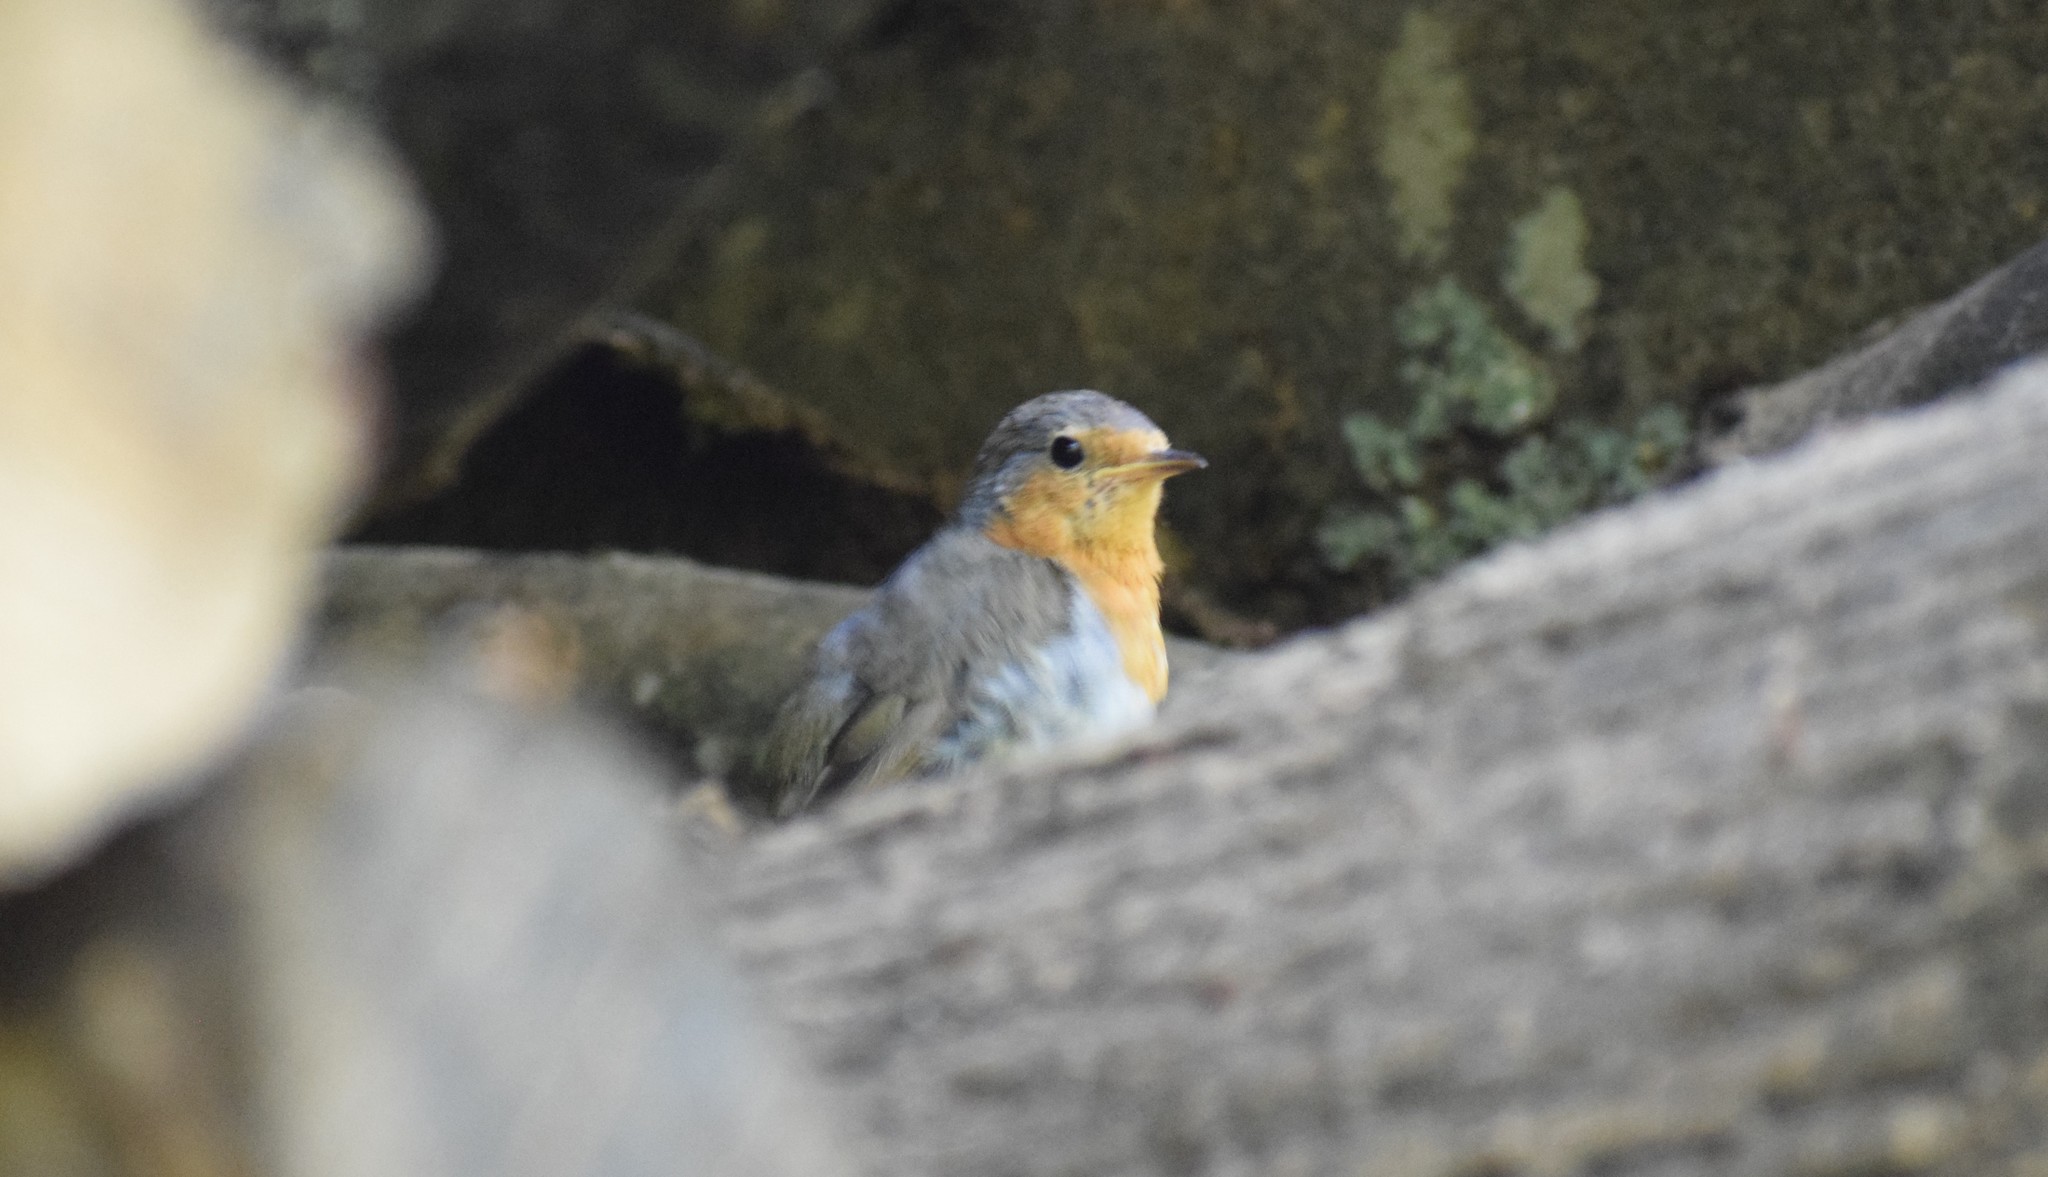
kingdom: Animalia
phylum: Chordata
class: Aves
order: Passeriformes
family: Muscicapidae
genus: Erithacus
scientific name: Erithacus rubecula
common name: European robin
